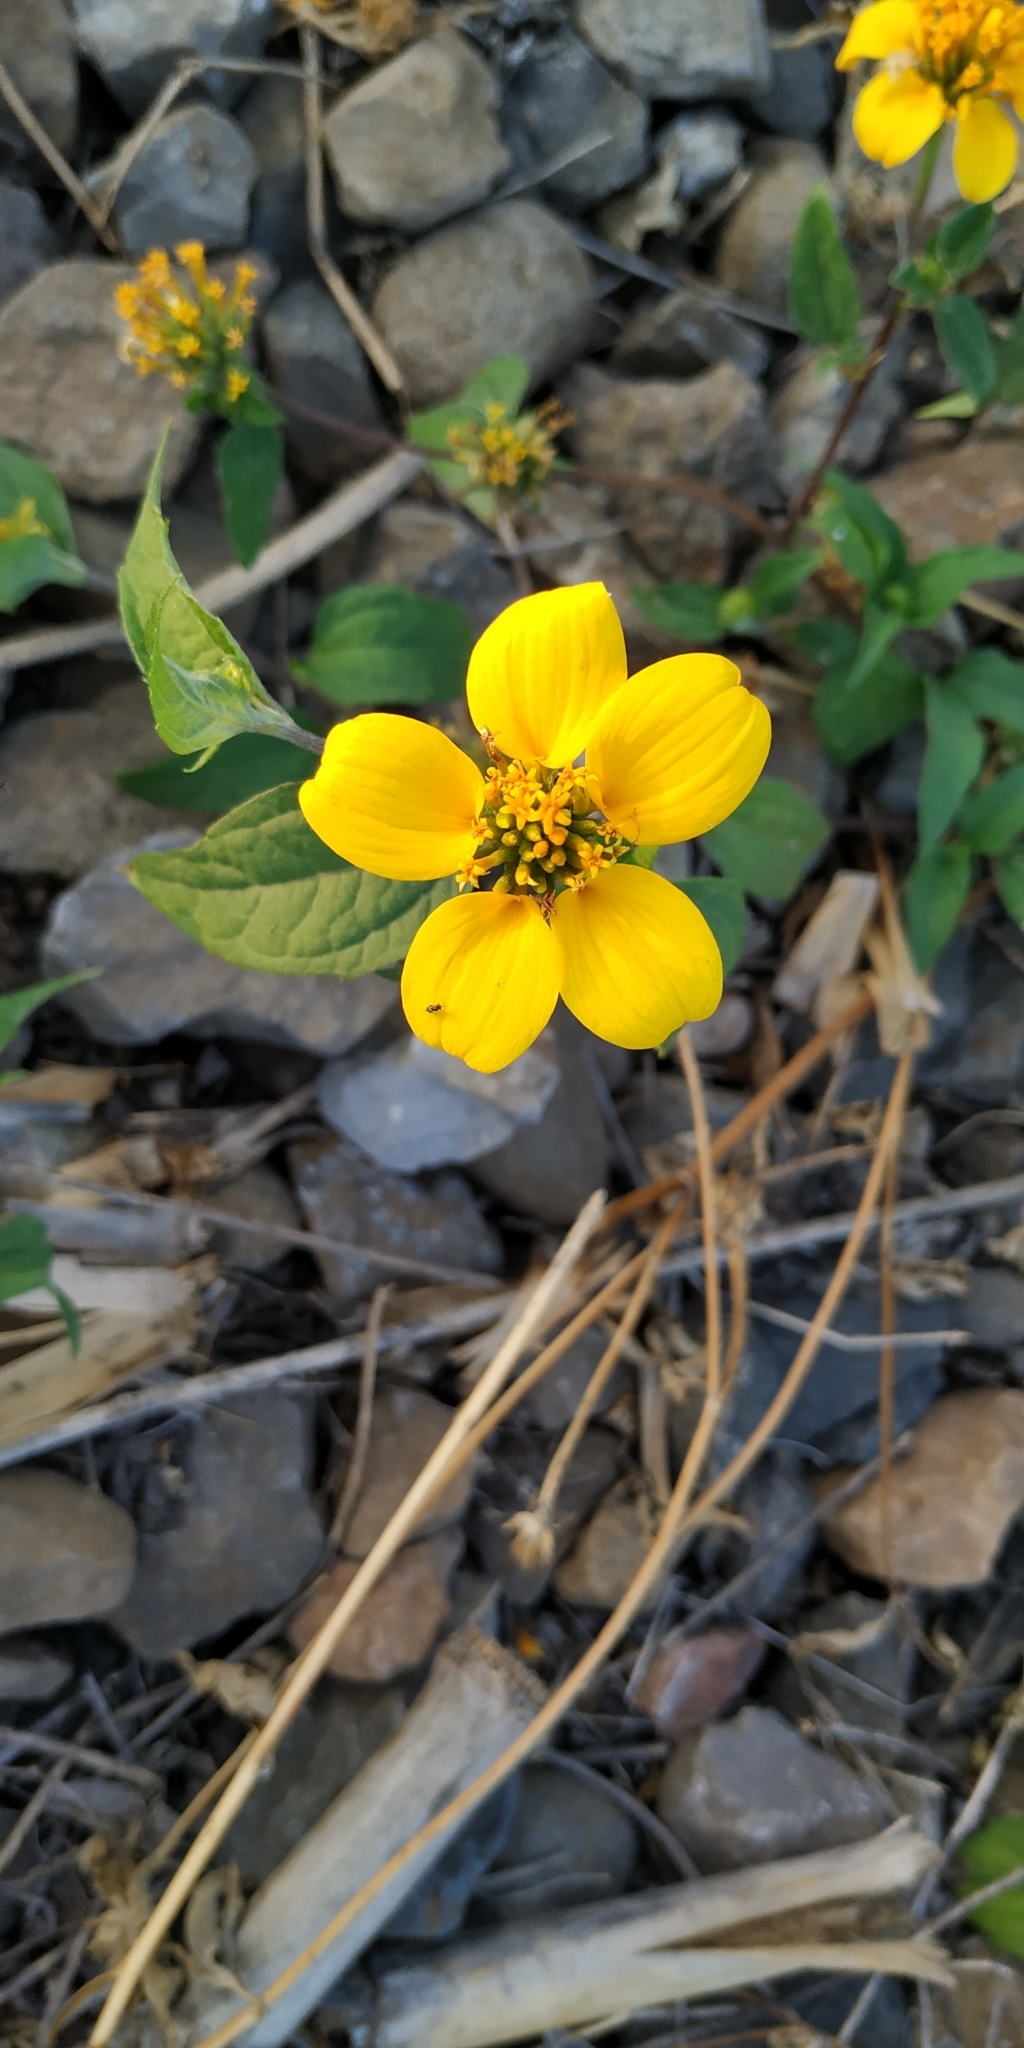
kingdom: Plantae
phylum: Tracheophyta
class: Magnoliopsida
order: Asterales
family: Asteraceae
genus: Sclerocarpus
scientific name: Sclerocarpus uniserialis
